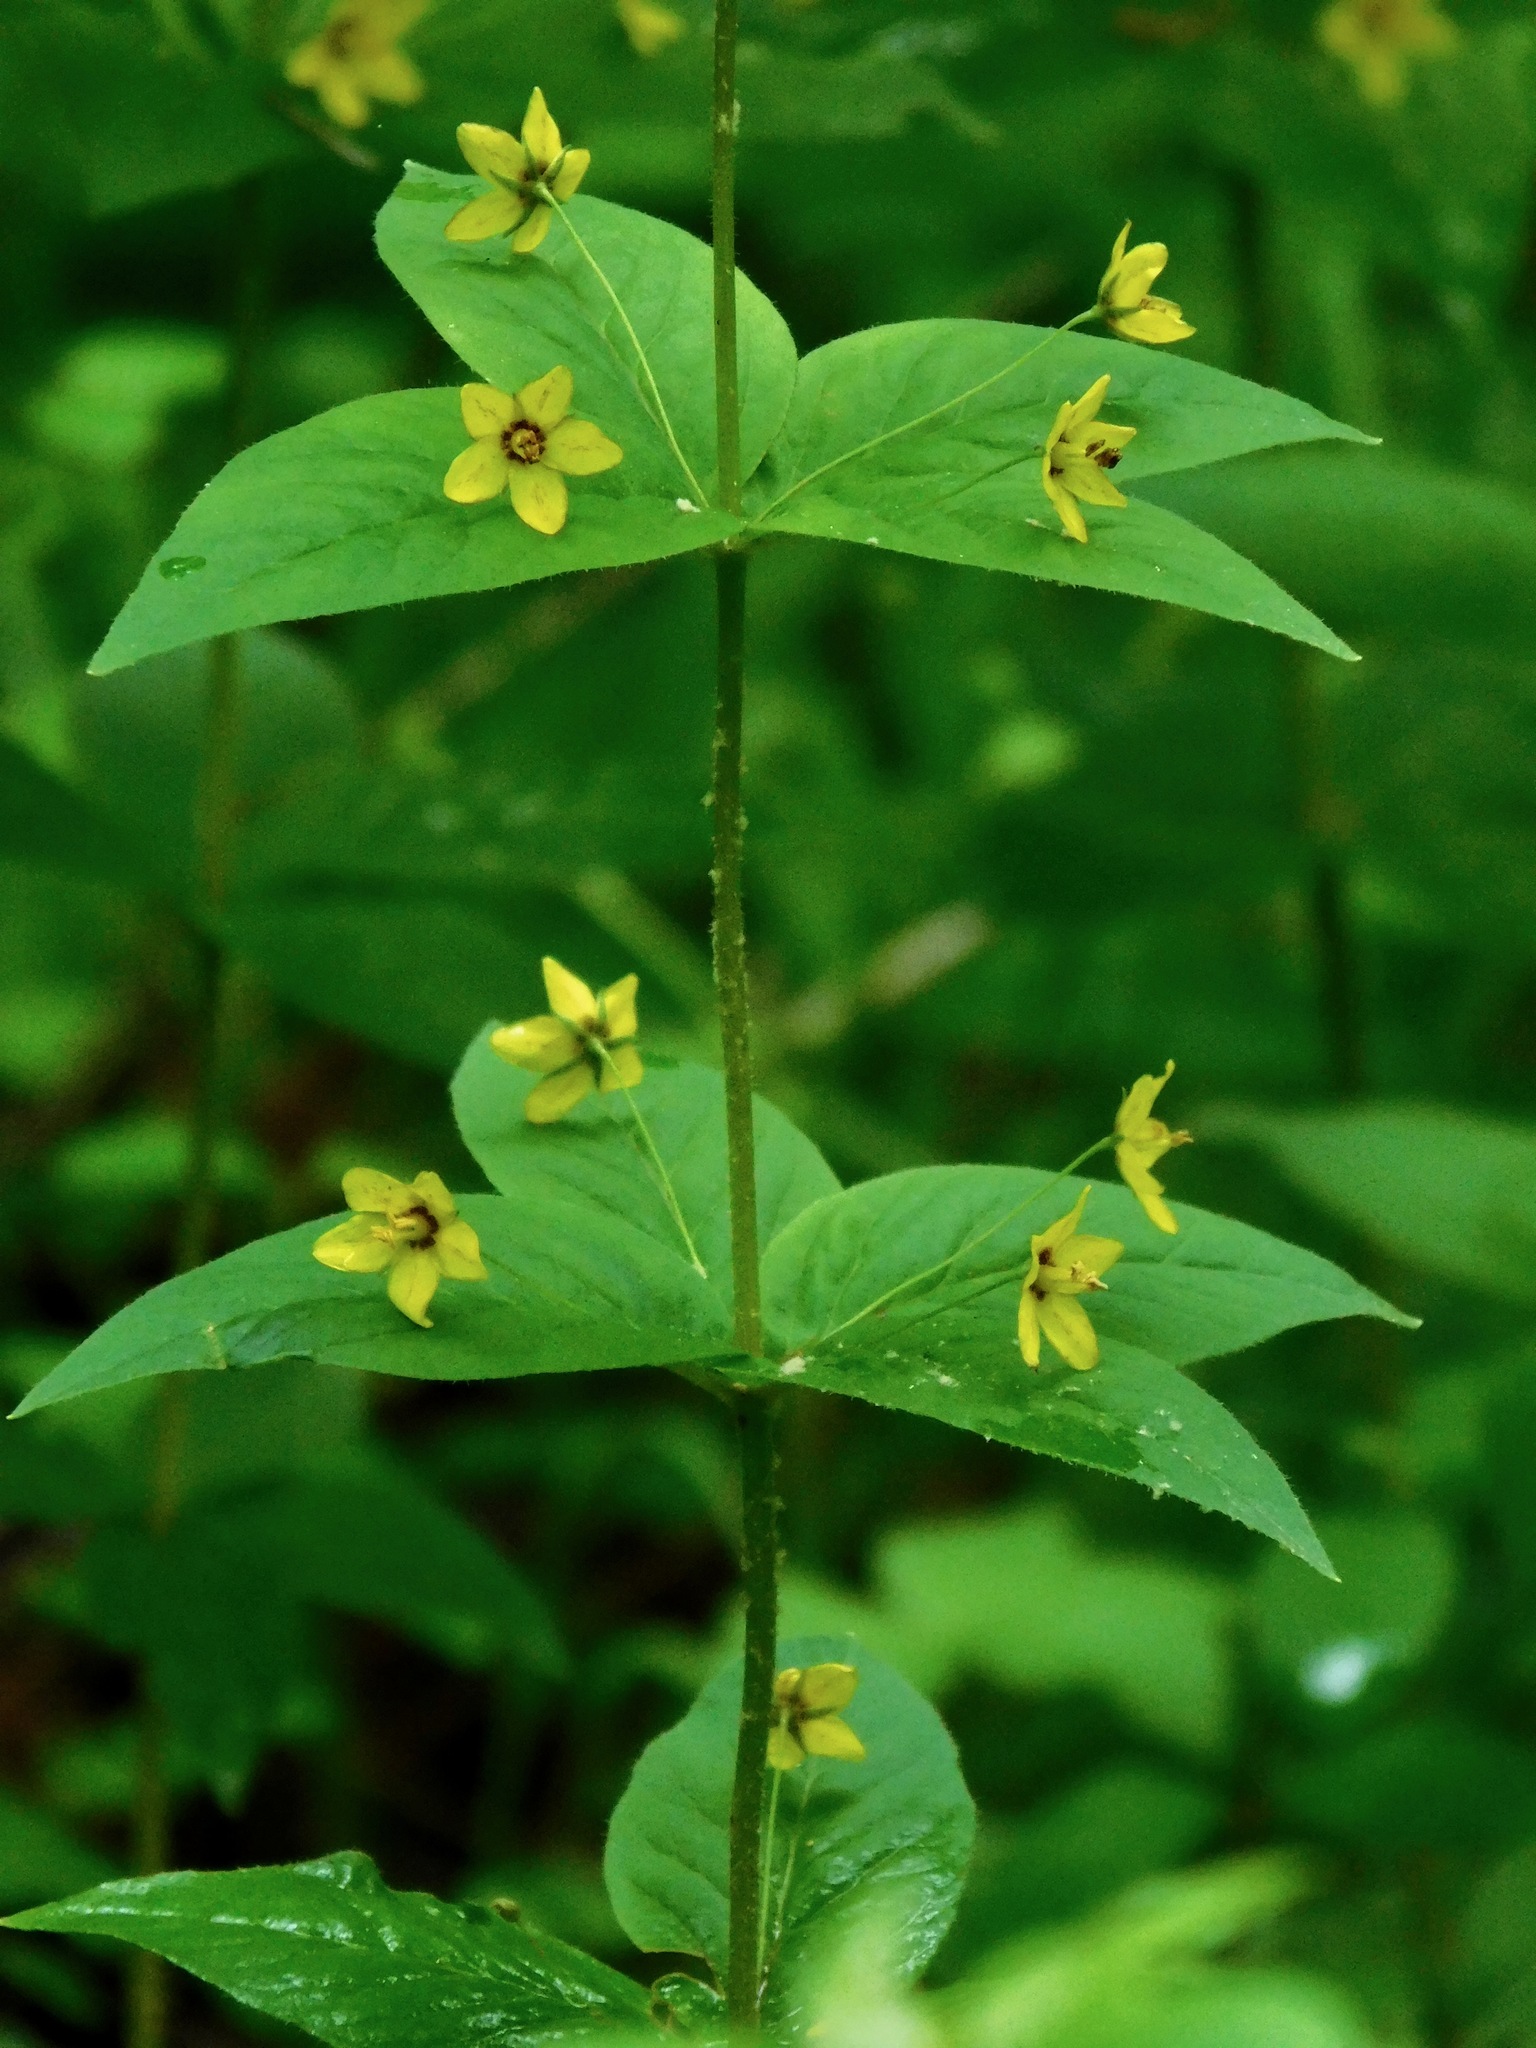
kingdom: Plantae
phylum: Tracheophyta
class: Magnoliopsida
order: Ericales
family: Primulaceae
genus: Lysimachia
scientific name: Lysimachia quadrifolia
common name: Whorled loosestrife
